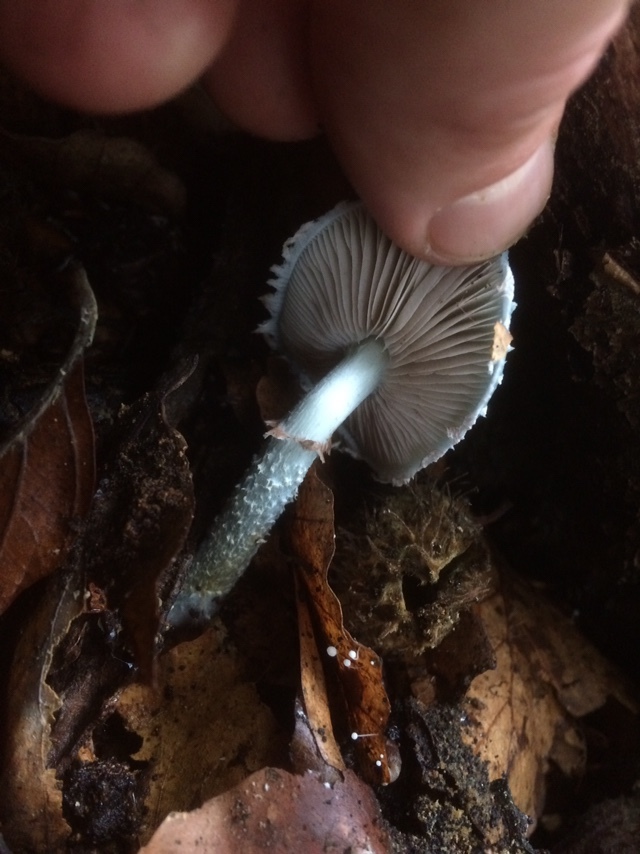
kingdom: Fungi
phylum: Basidiomycota
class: Agaricomycetes
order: Agaricales
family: Strophariaceae
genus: Stropharia
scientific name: Stropharia aeruginosa
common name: Verdigris roundhead
